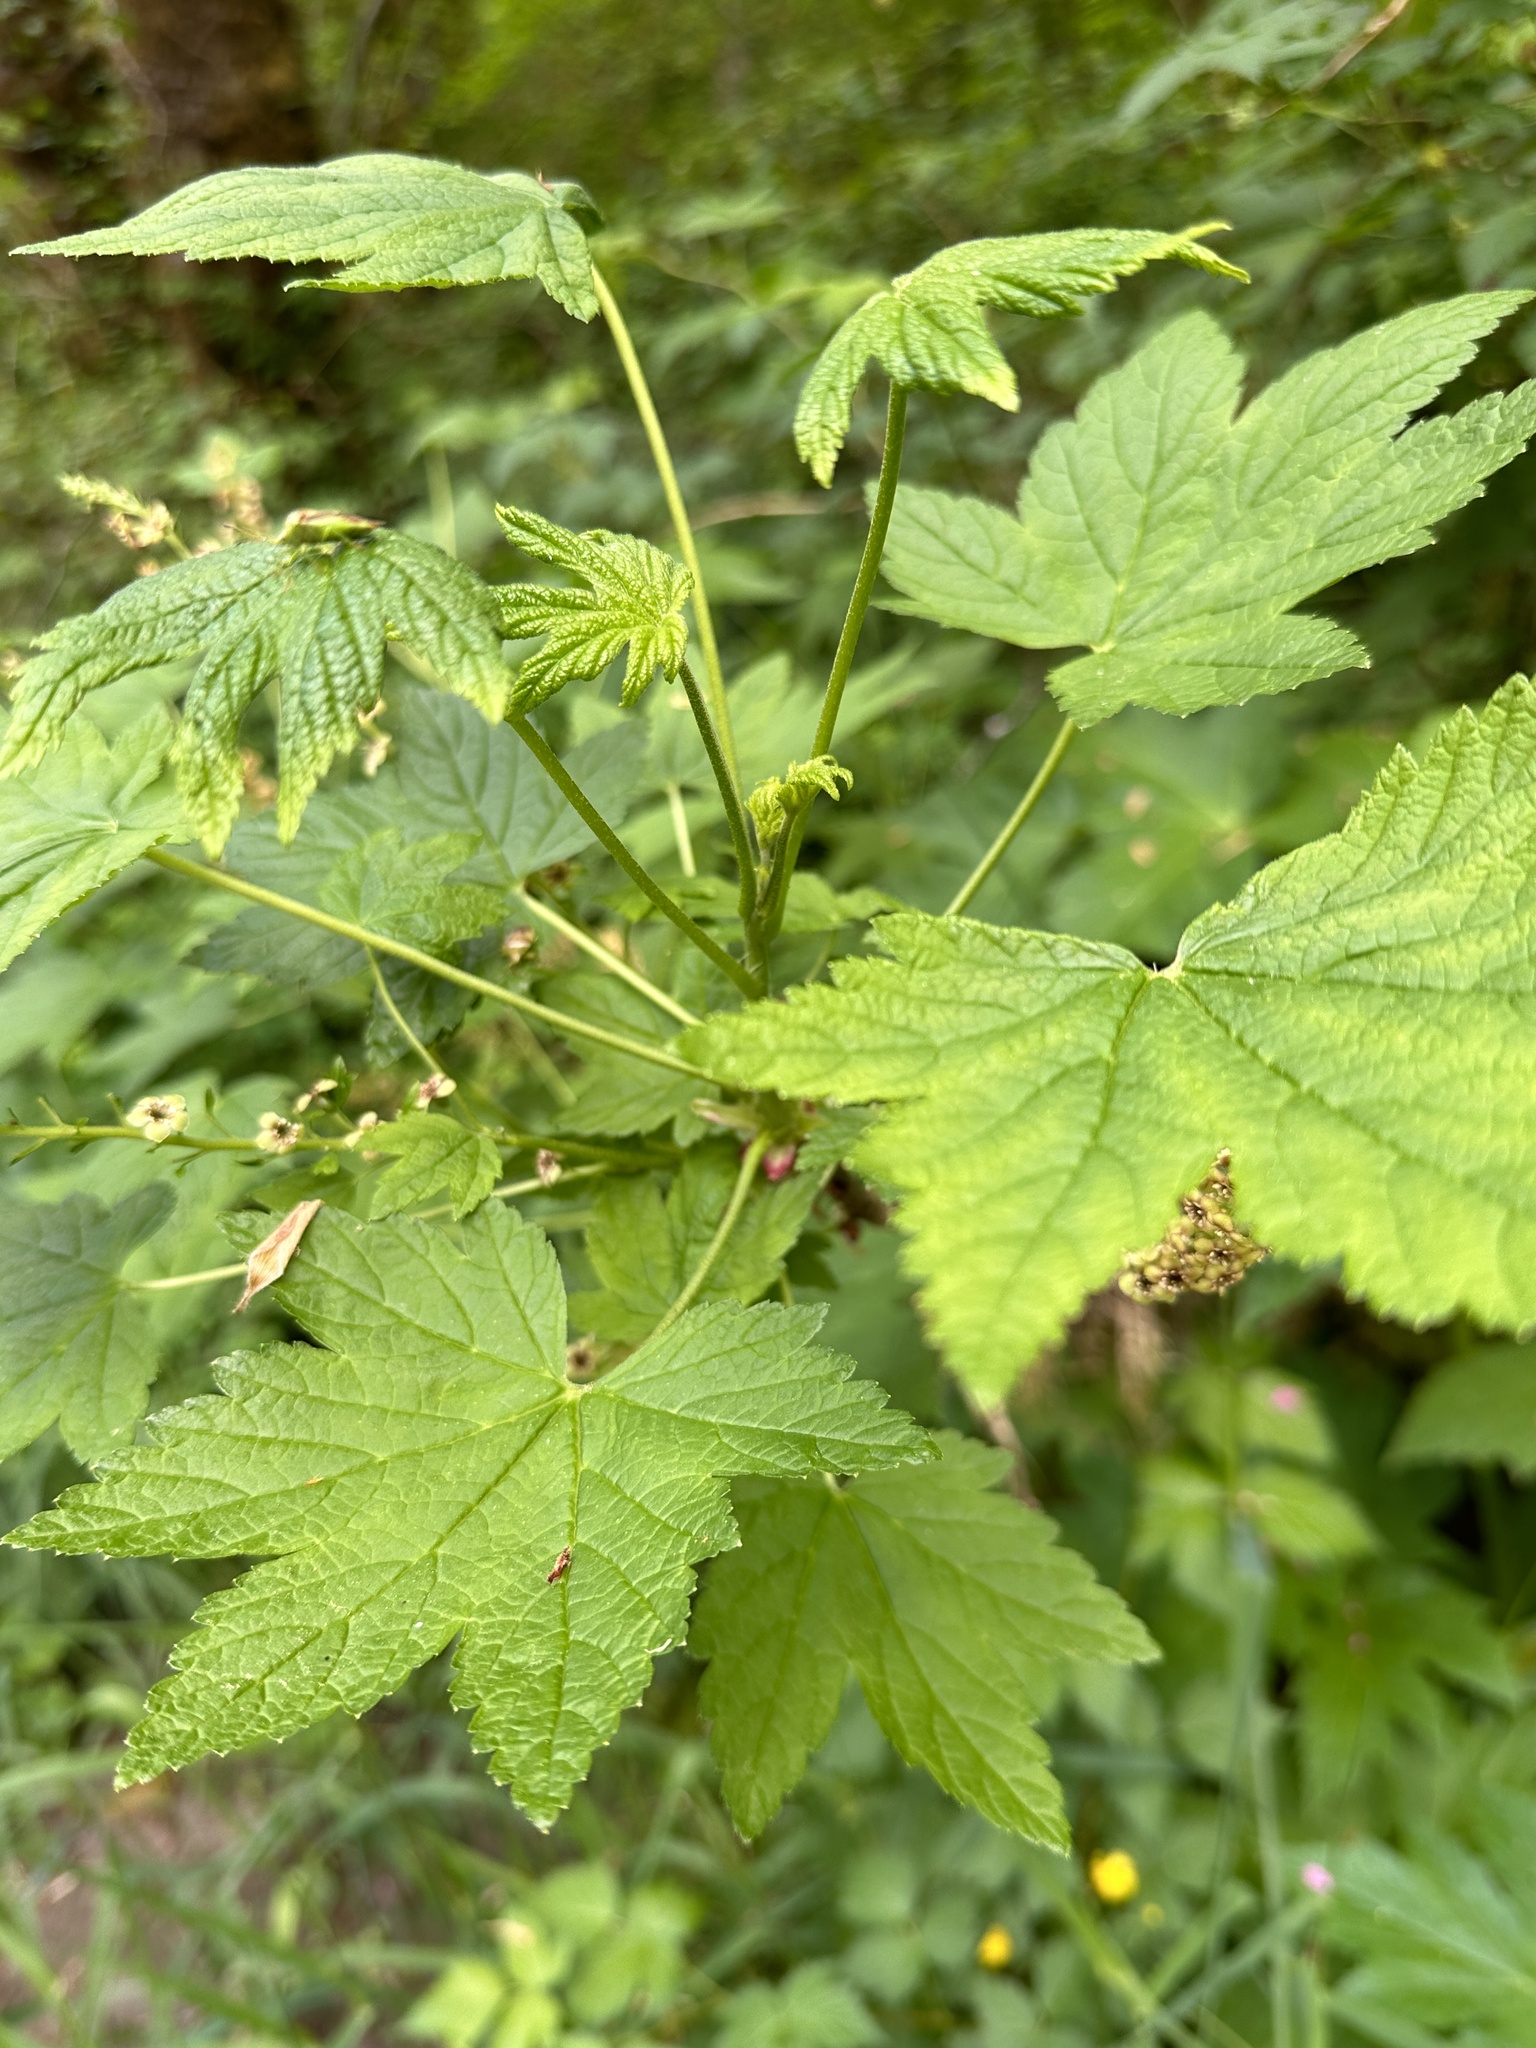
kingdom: Plantae
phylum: Tracheophyta
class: Magnoliopsida
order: Saxifragales
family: Grossulariaceae
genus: Ribes
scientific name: Ribes bracteosum
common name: California black currant
